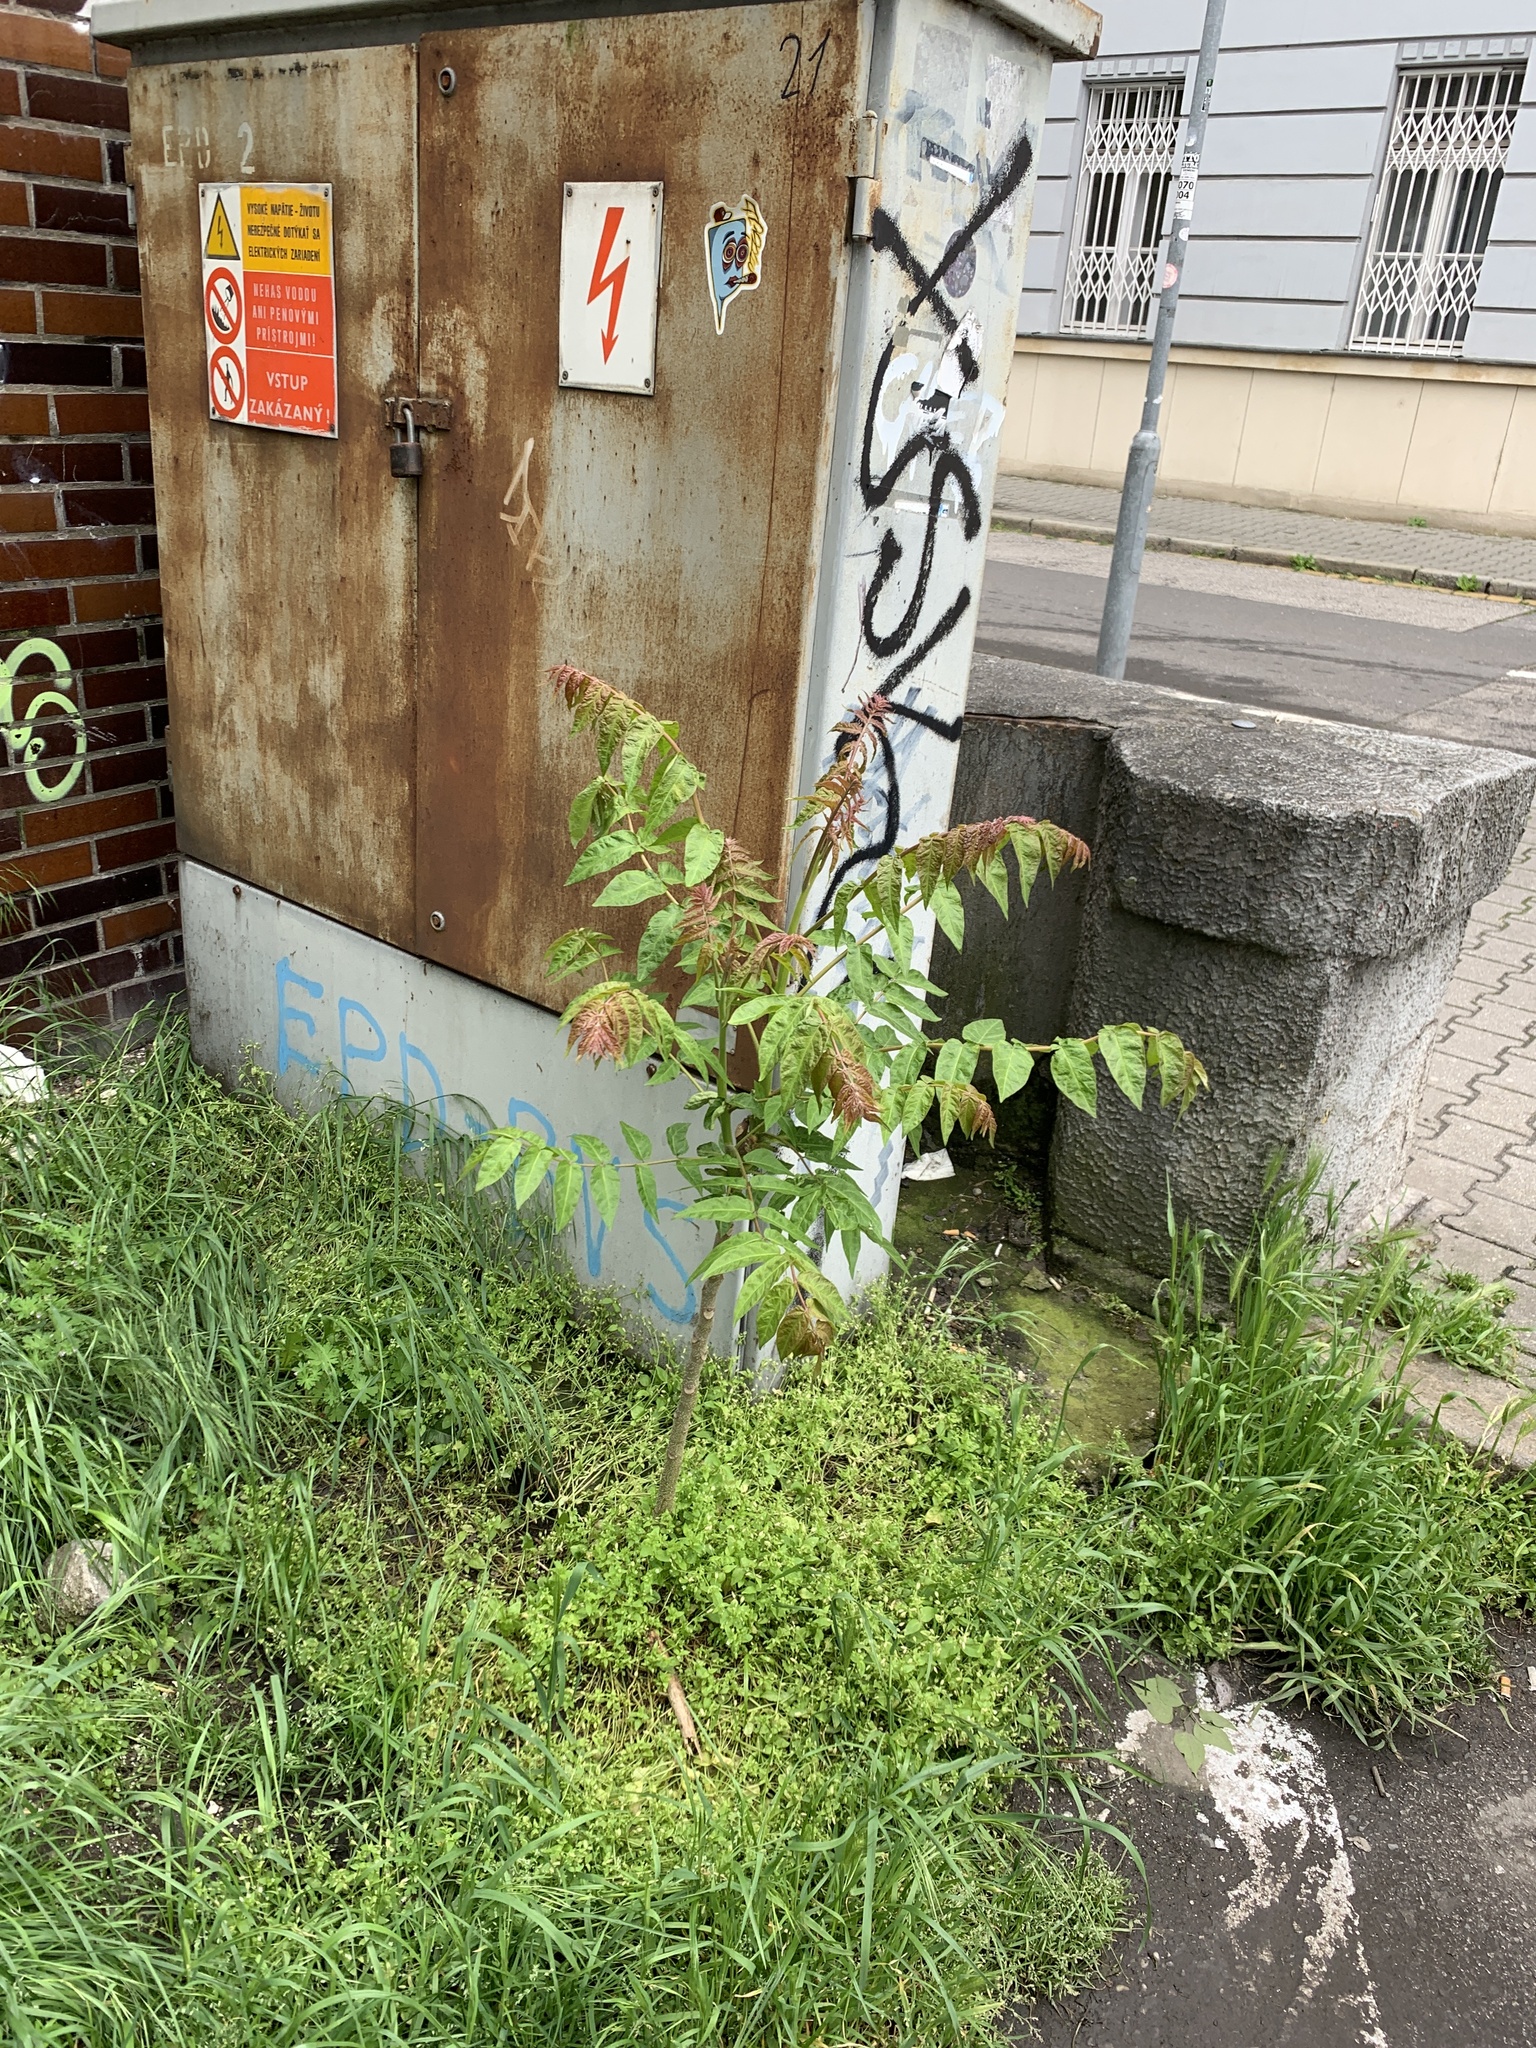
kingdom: Plantae
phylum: Tracheophyta
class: Magnoliopsida
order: Sapindales
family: Simaroubaceae
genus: Ailanthus
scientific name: Ailanthus altissima
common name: Tree-of-heaven
